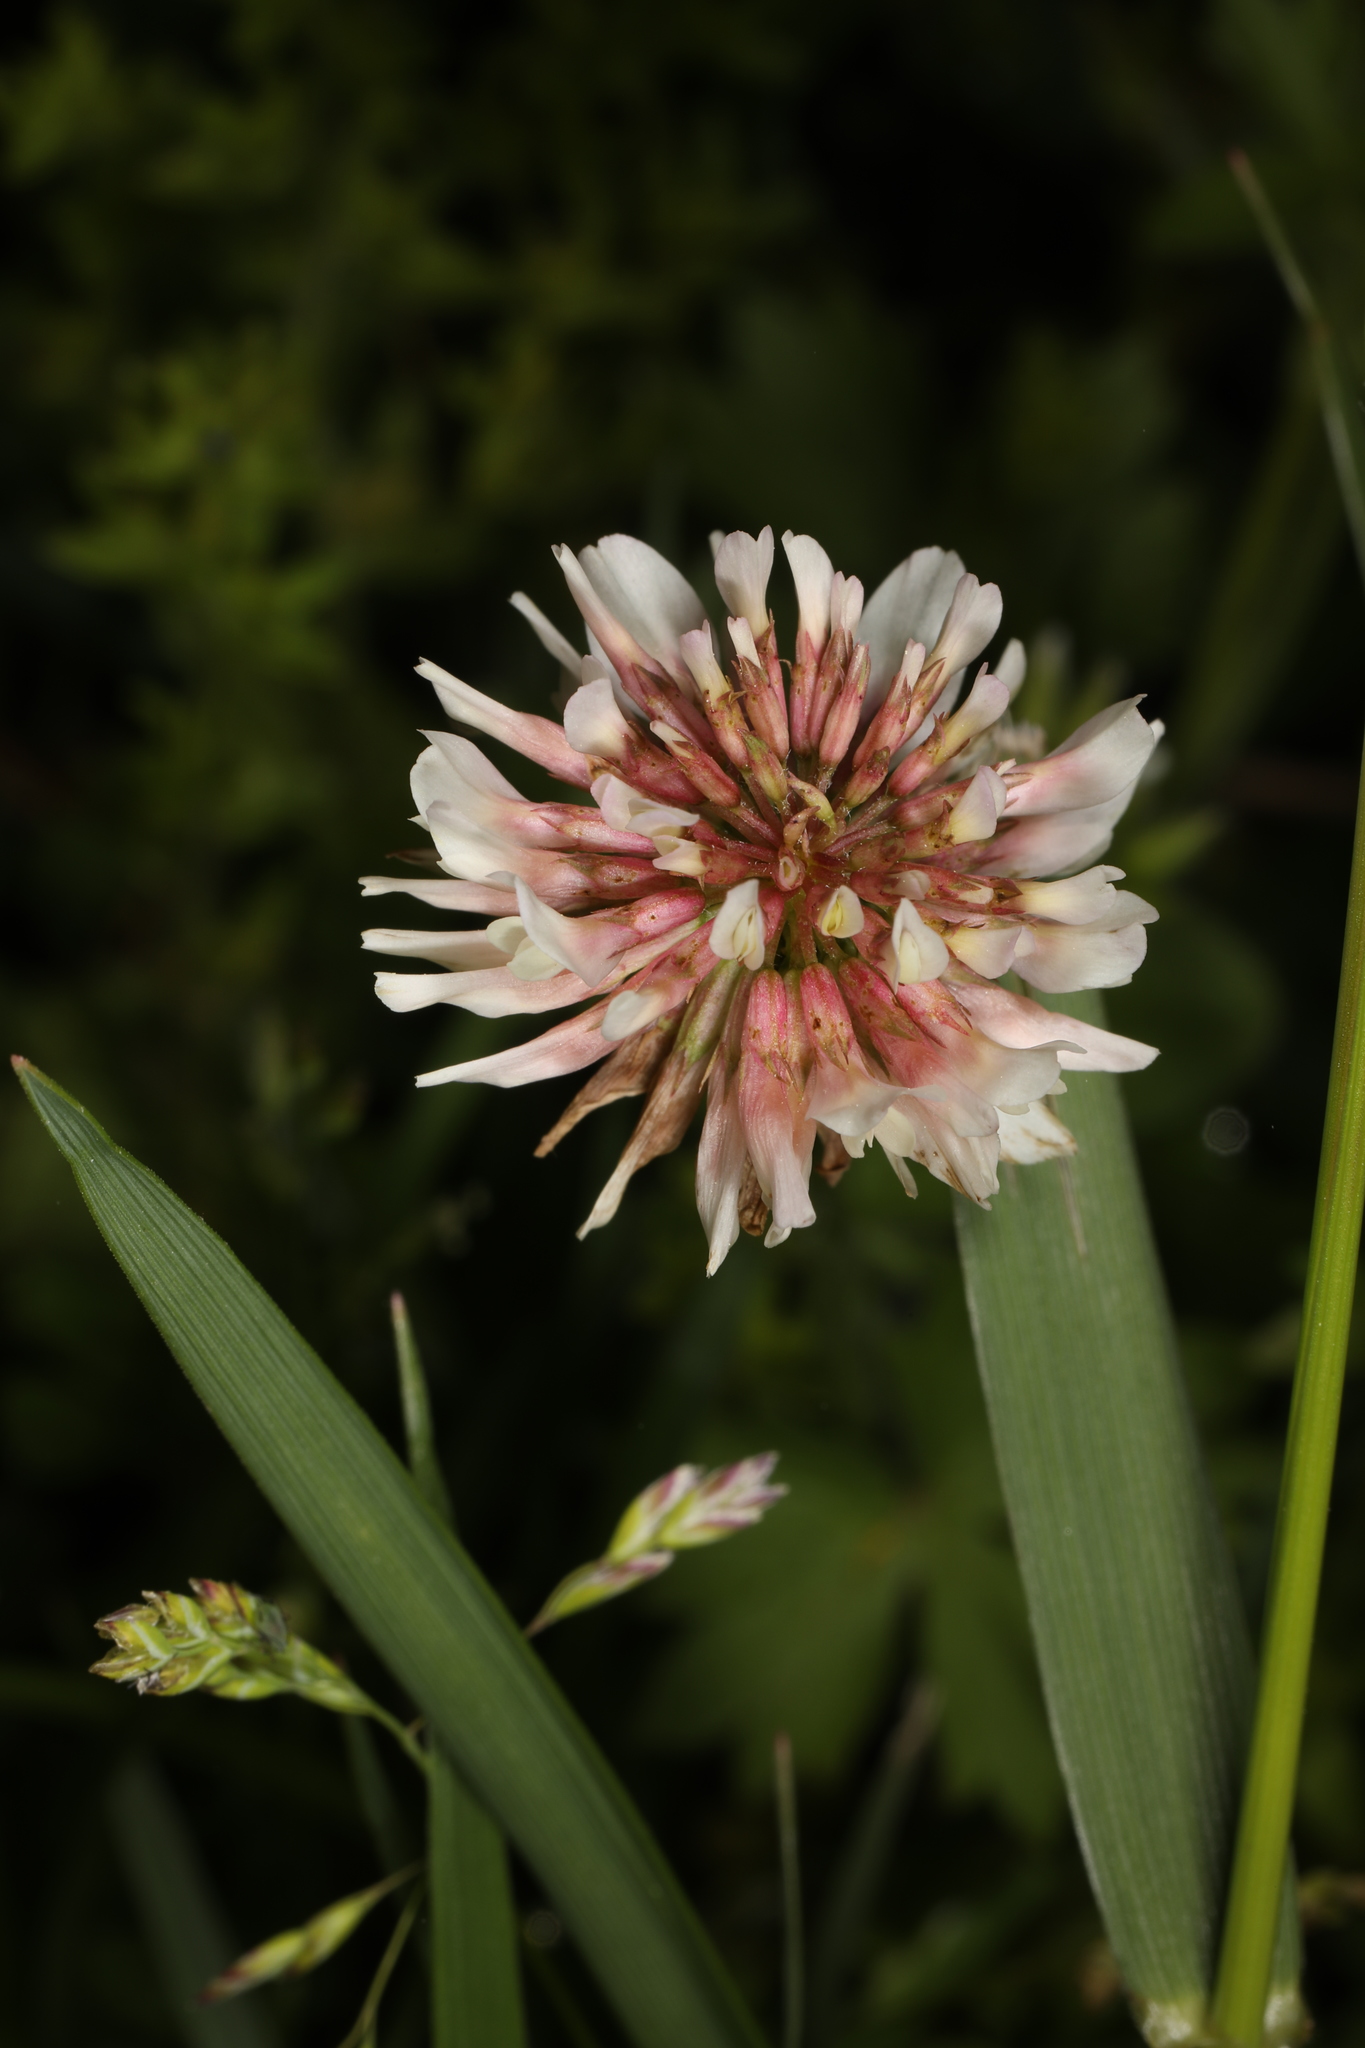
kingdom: Plantae
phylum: Tracheophyta
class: Magnoliopsida
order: Fabales
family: Fabaceae
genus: Trifolium
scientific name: Trifolium repens
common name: White clover
